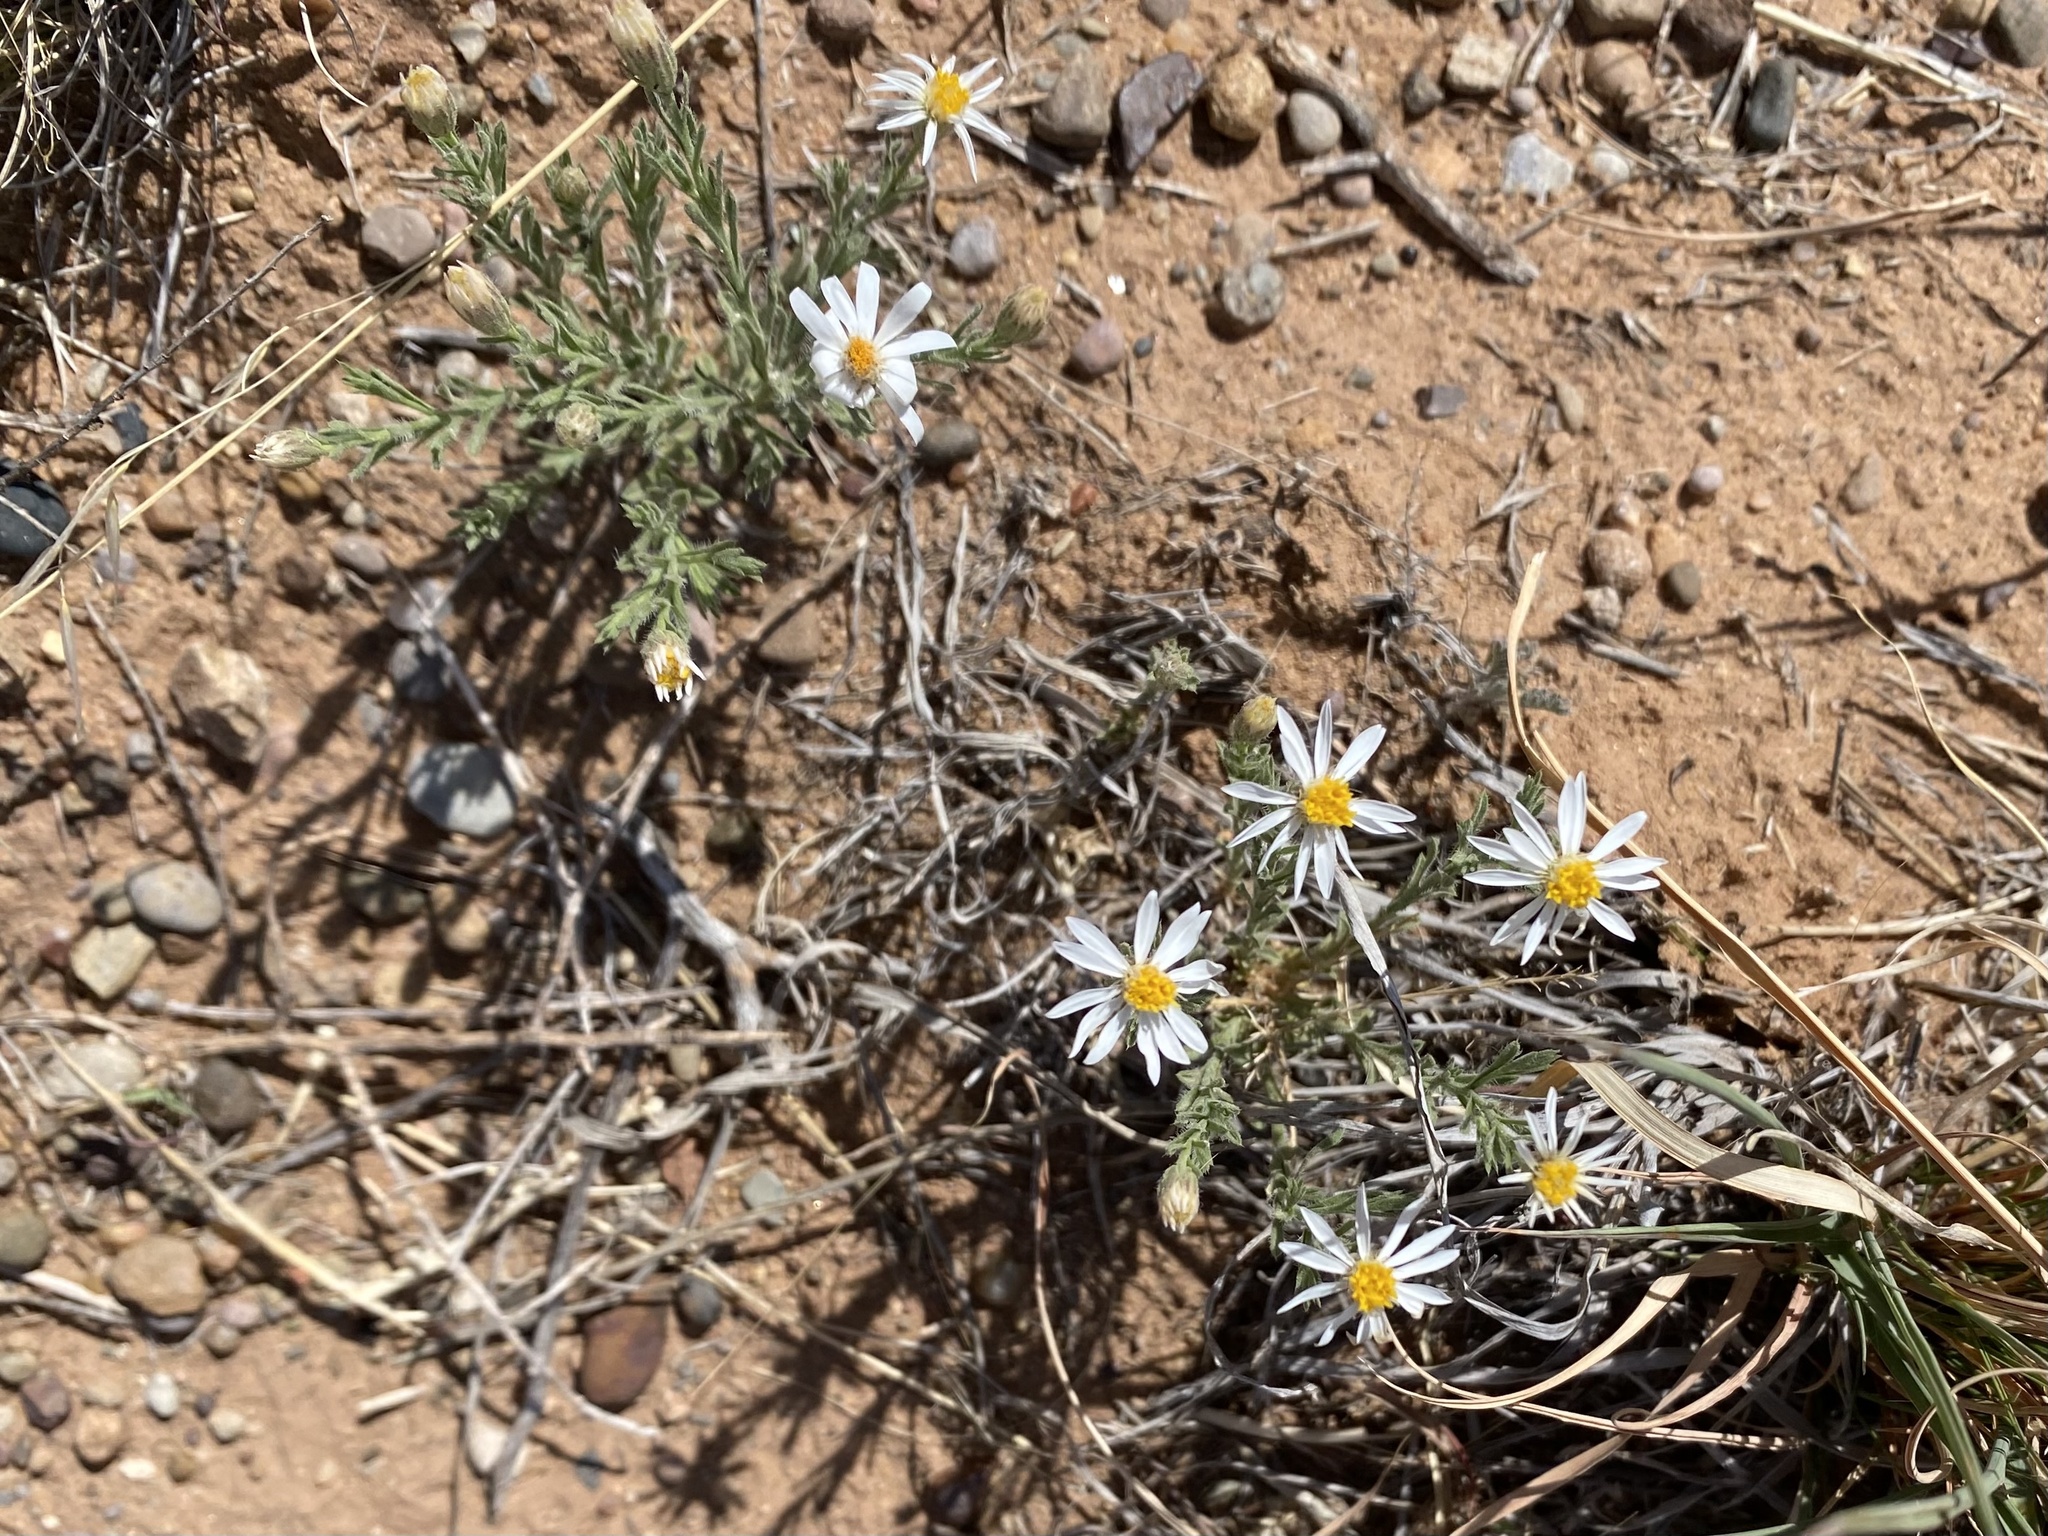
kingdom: Plantae
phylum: Tracheophyta
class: Magnoliopsida
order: Asterales
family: Asteraceae
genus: Chaetopappa
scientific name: Chaetopappa ericoides
